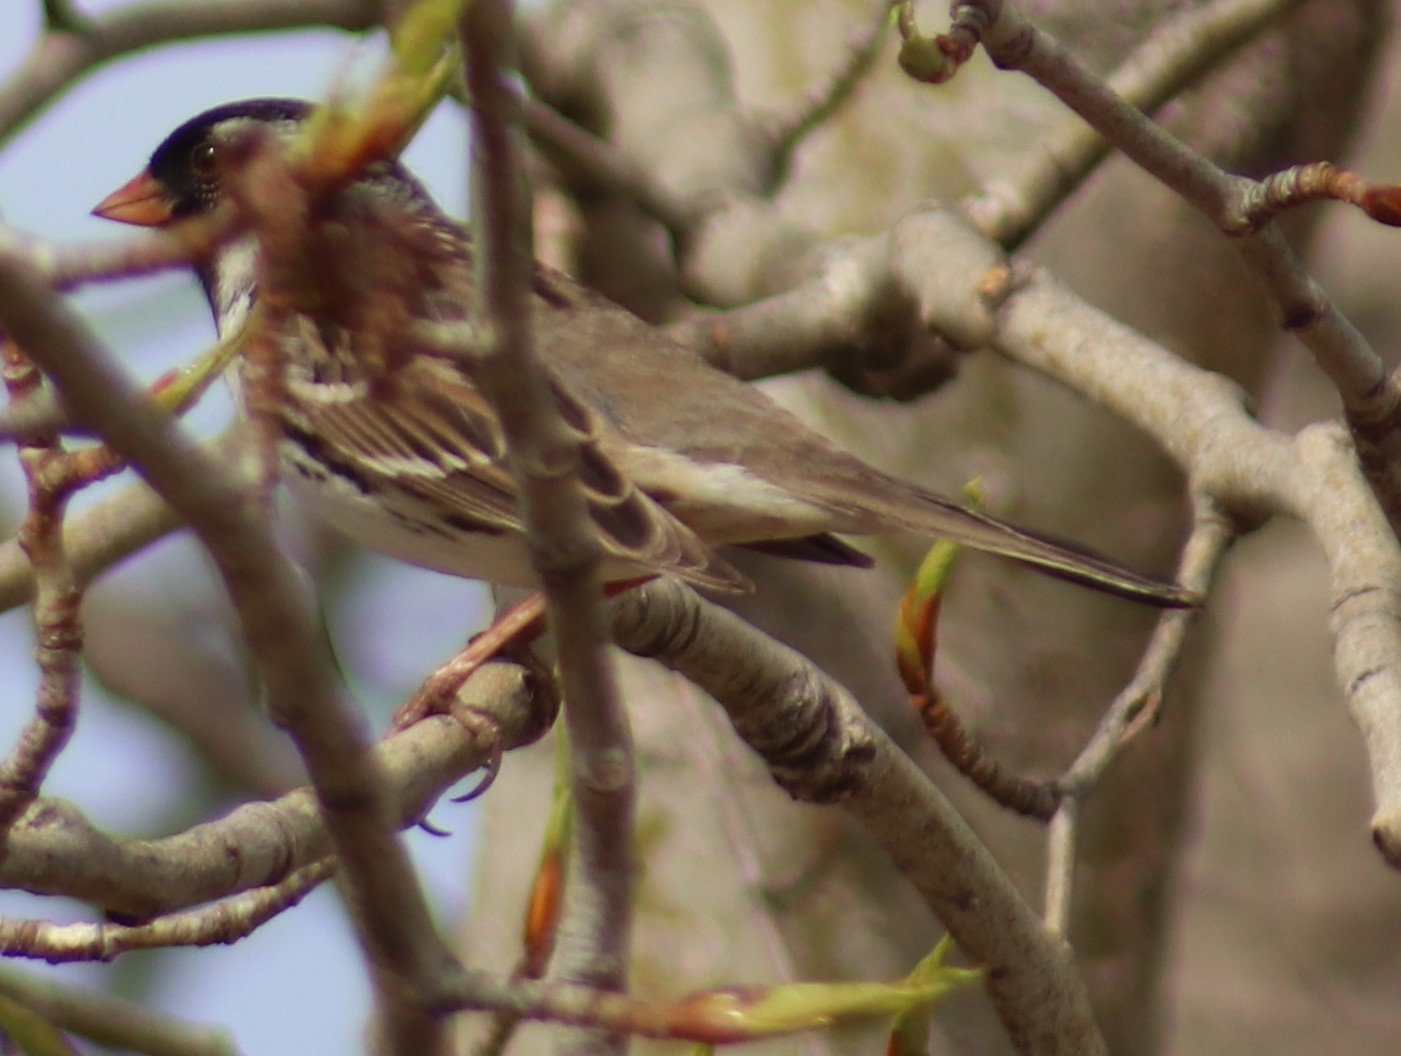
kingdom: Animalia
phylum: Chordata
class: Aves
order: Passeriformes
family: Passerellidae
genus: Zonotrichia
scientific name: Zonotrichia querula
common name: Harris's sparrow
